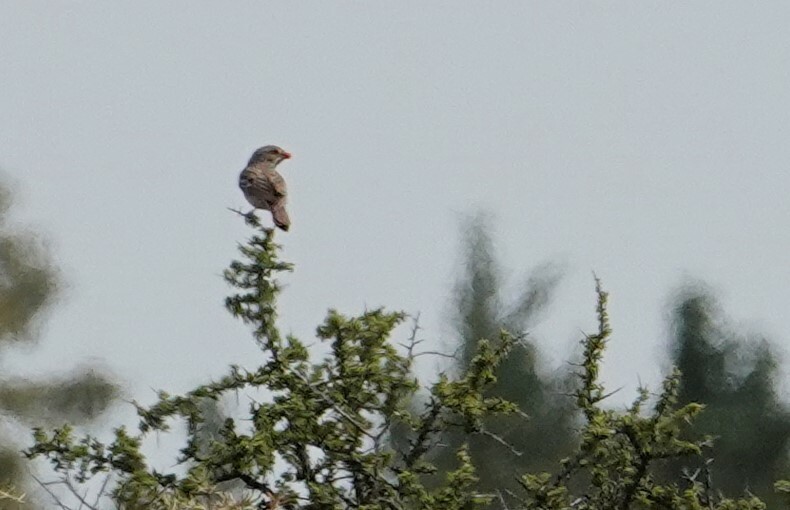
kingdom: Animalia
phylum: Chordata
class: Aves
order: Passeriformes
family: Thraupidae
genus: Rhopospina
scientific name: Rhopospina fruticeti
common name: Mourning sierra finch
